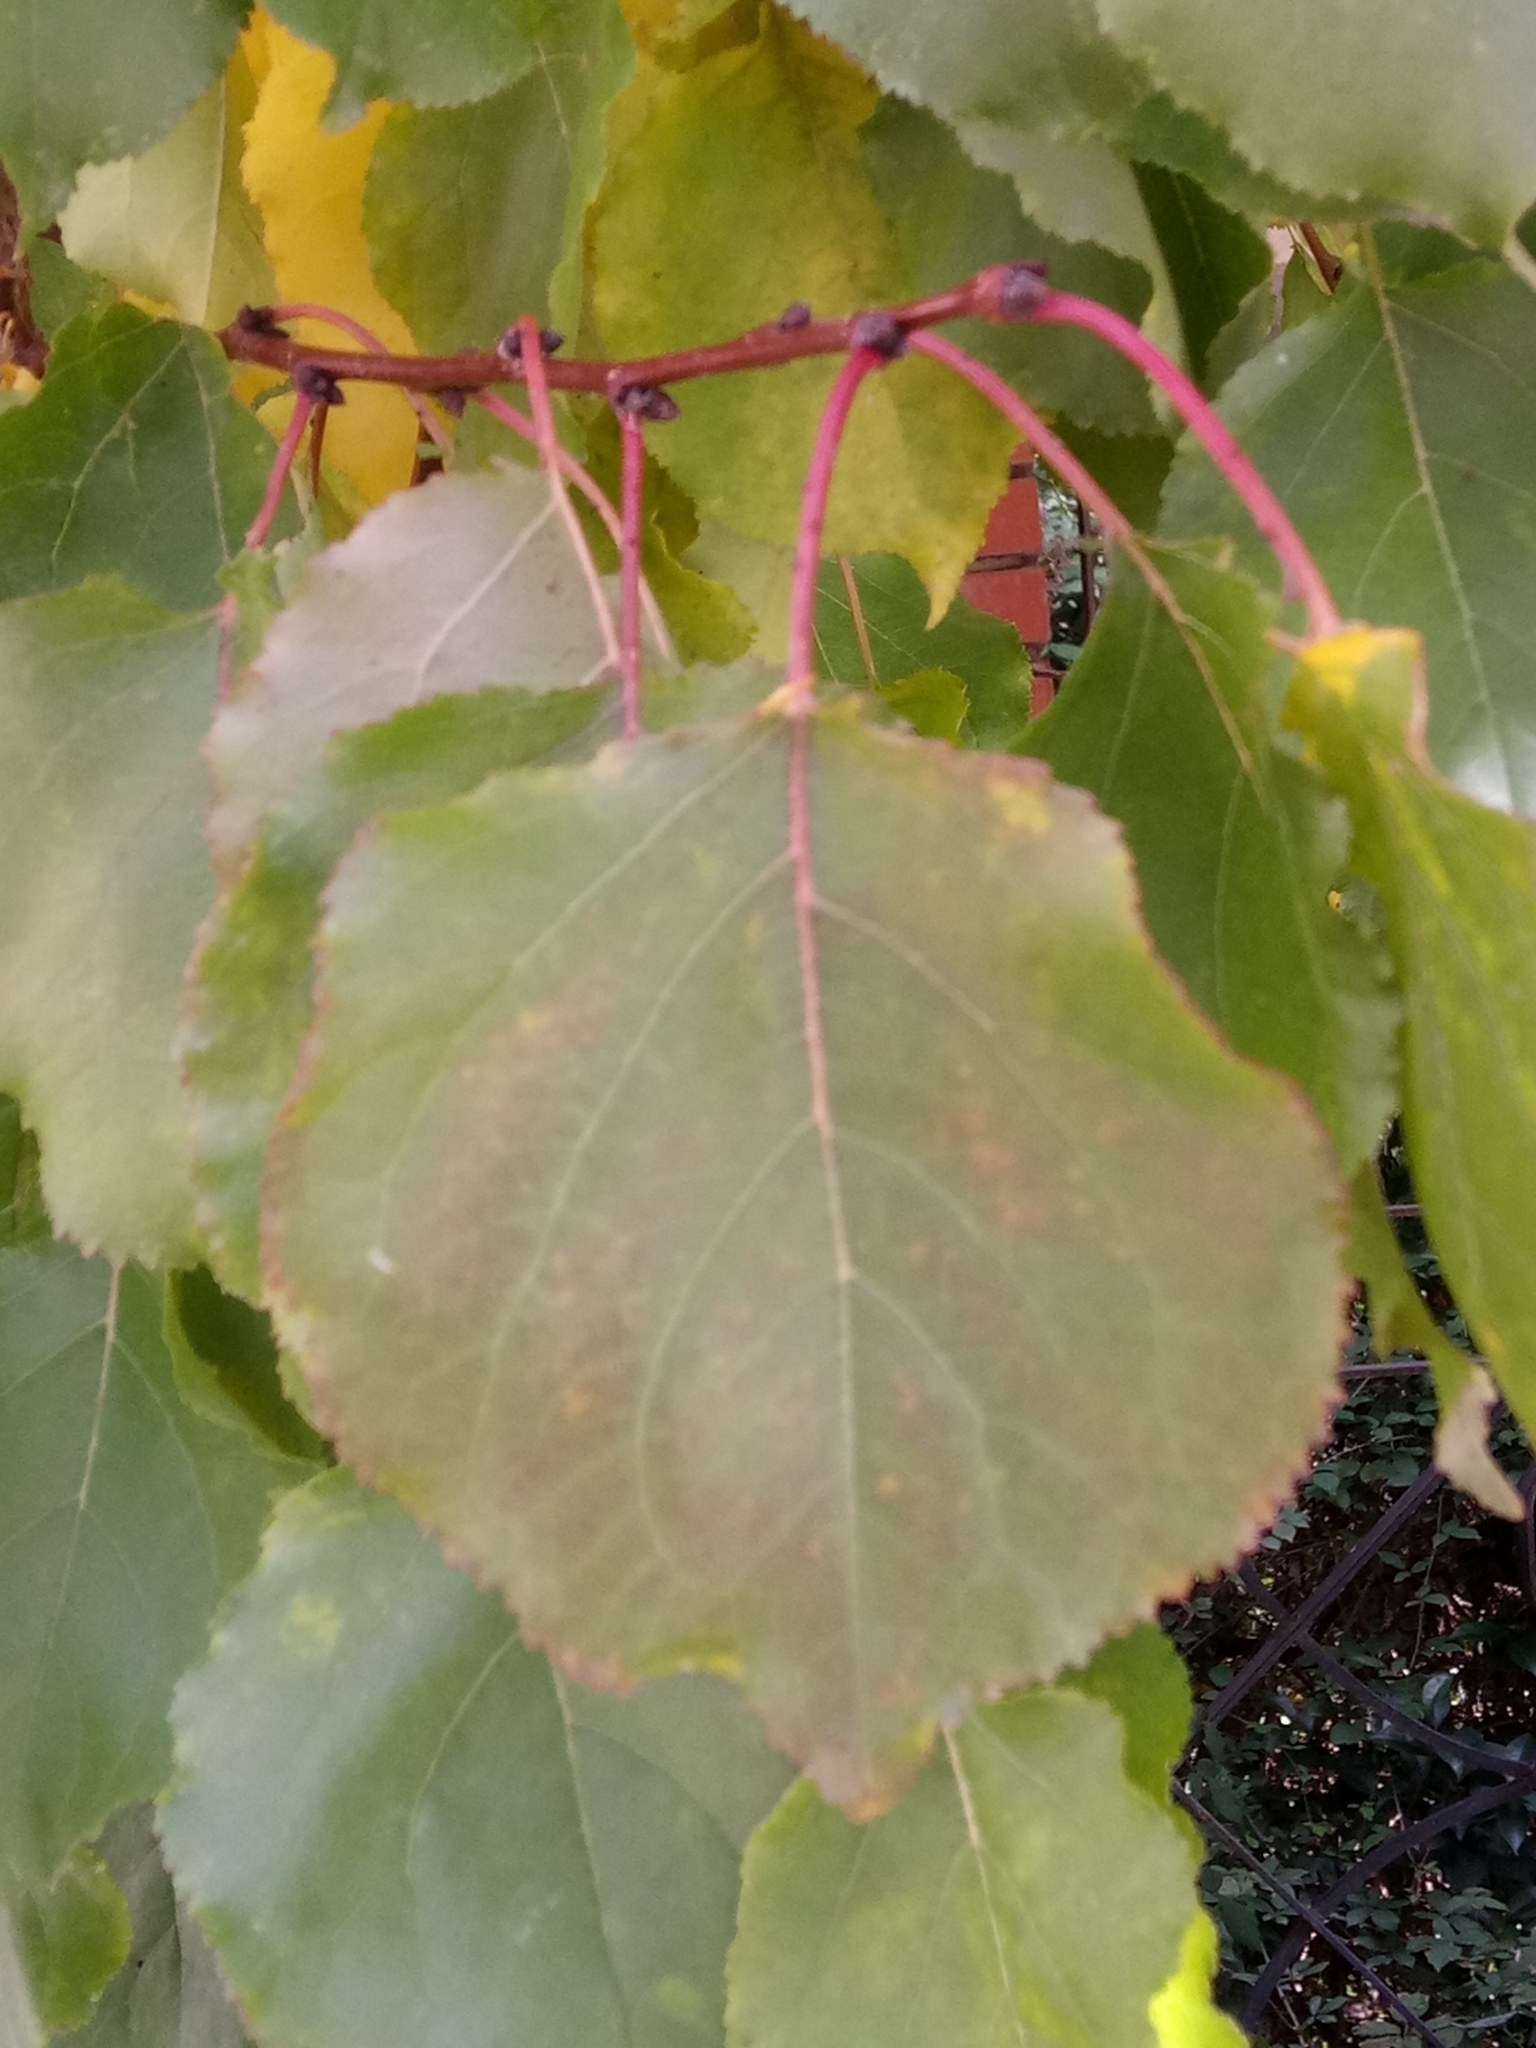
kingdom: Plantae
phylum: Tracheophyta
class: Magnoliopsida
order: Rosales
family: Rosaceae
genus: Prunus
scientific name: Prunus armeniaca
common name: Apricot
